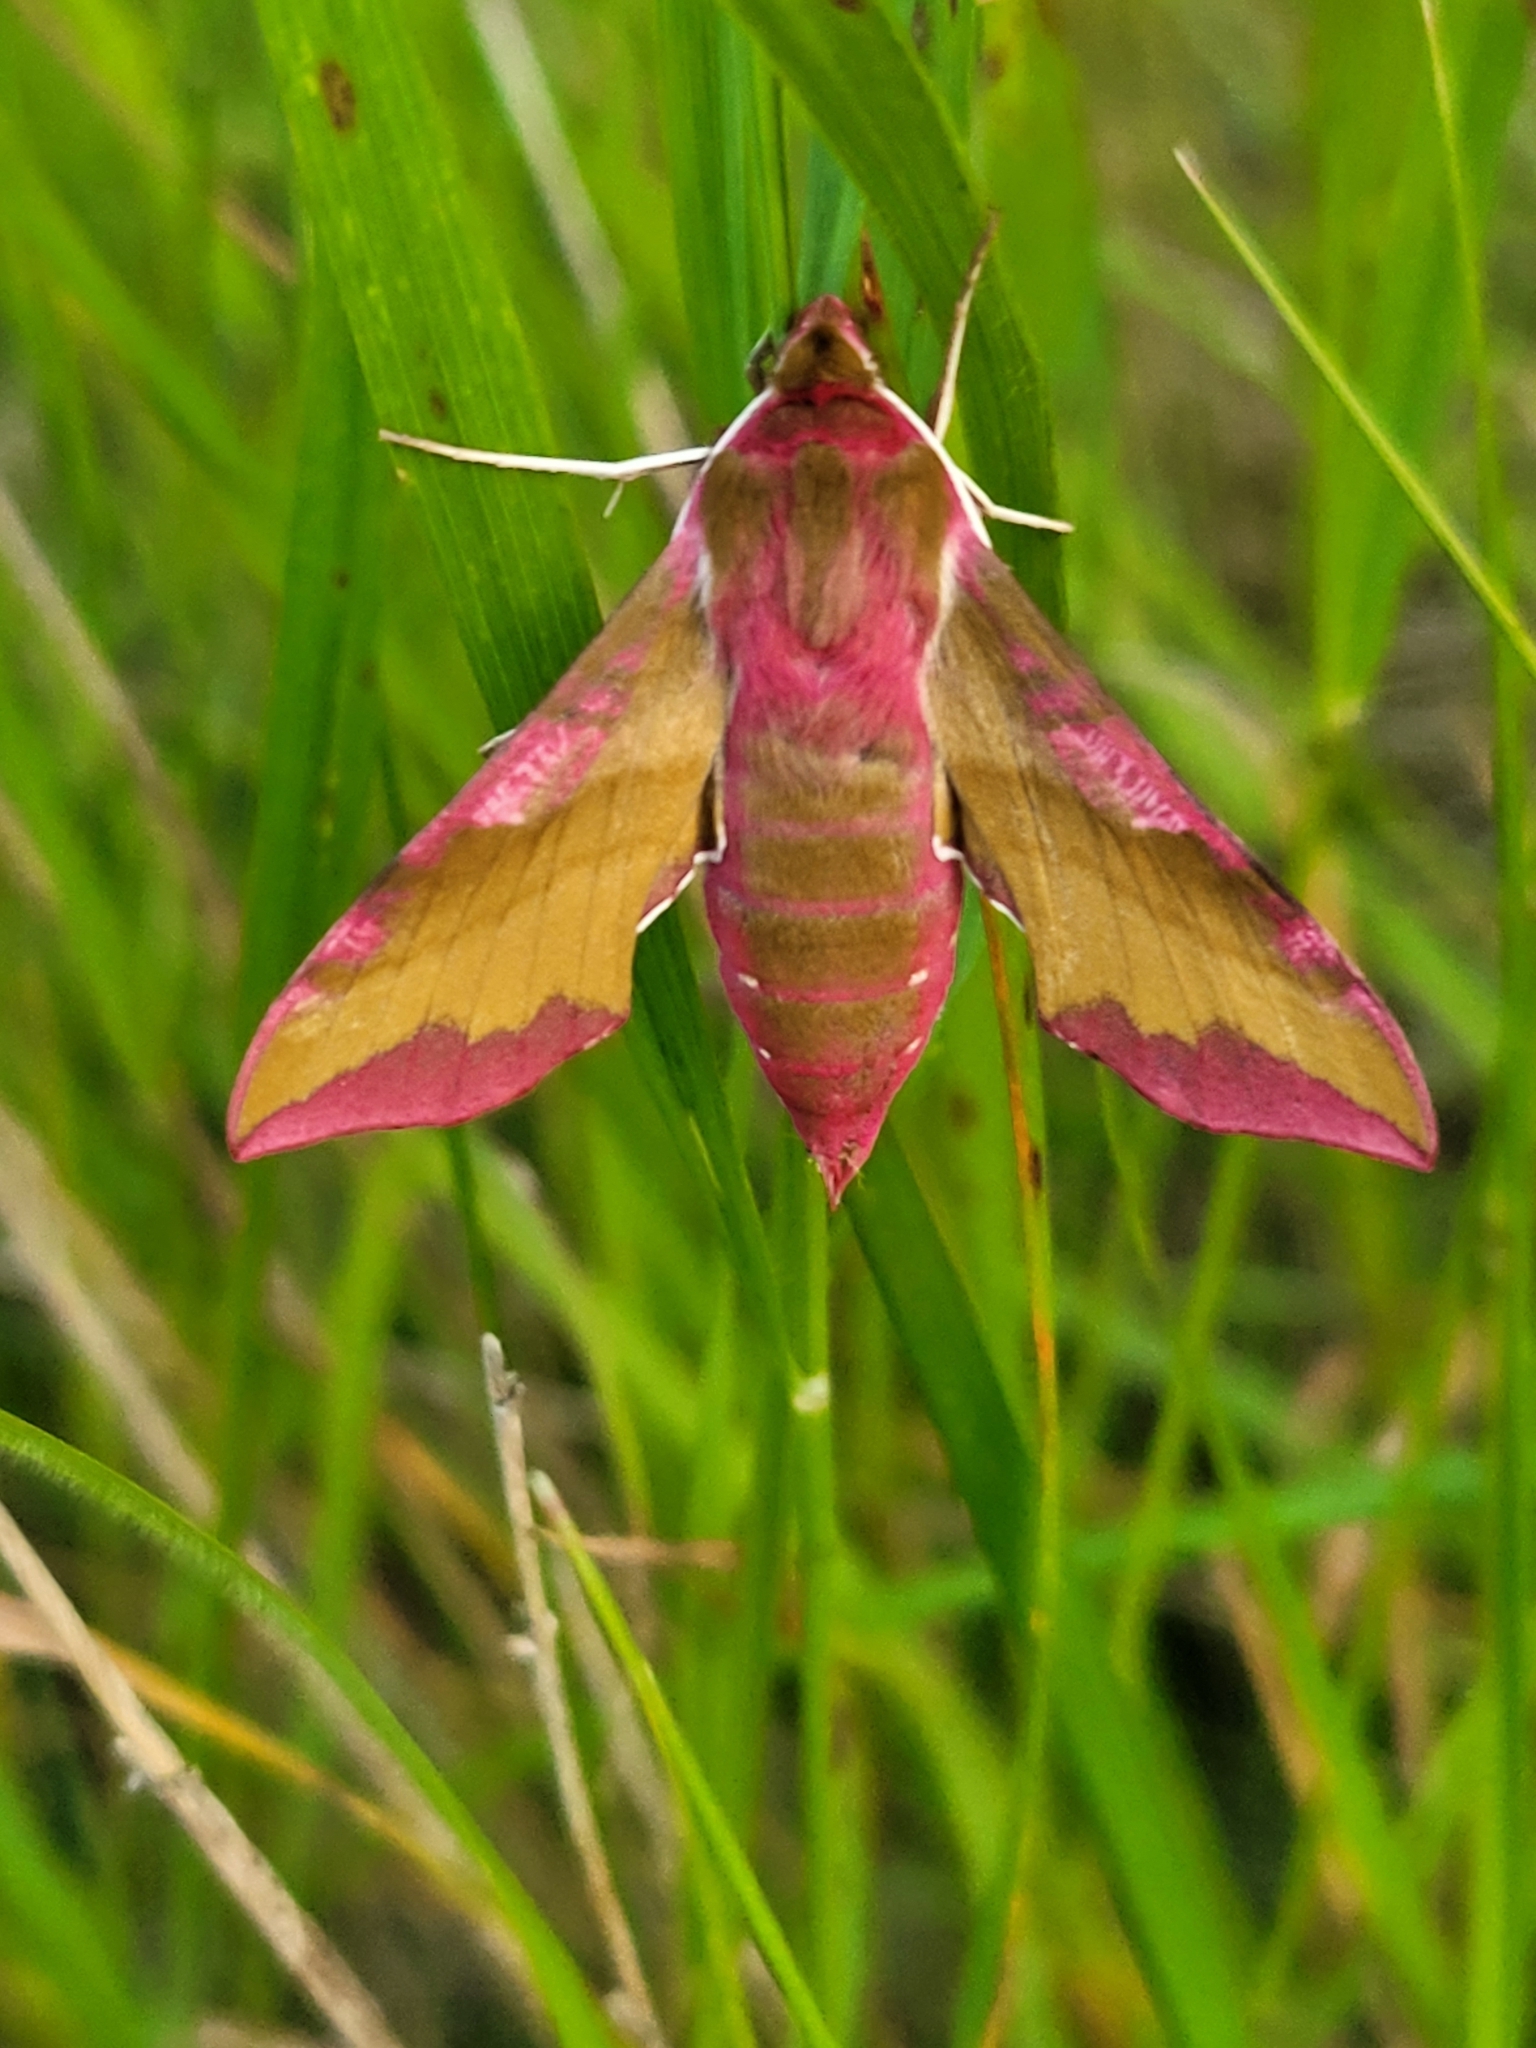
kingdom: Animalia
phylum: Arthropoda
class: Insecta
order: Lepidoptera
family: Sphingidae
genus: Deilephila
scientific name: Deilephila porcellus
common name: Small elephant hawk-moth
